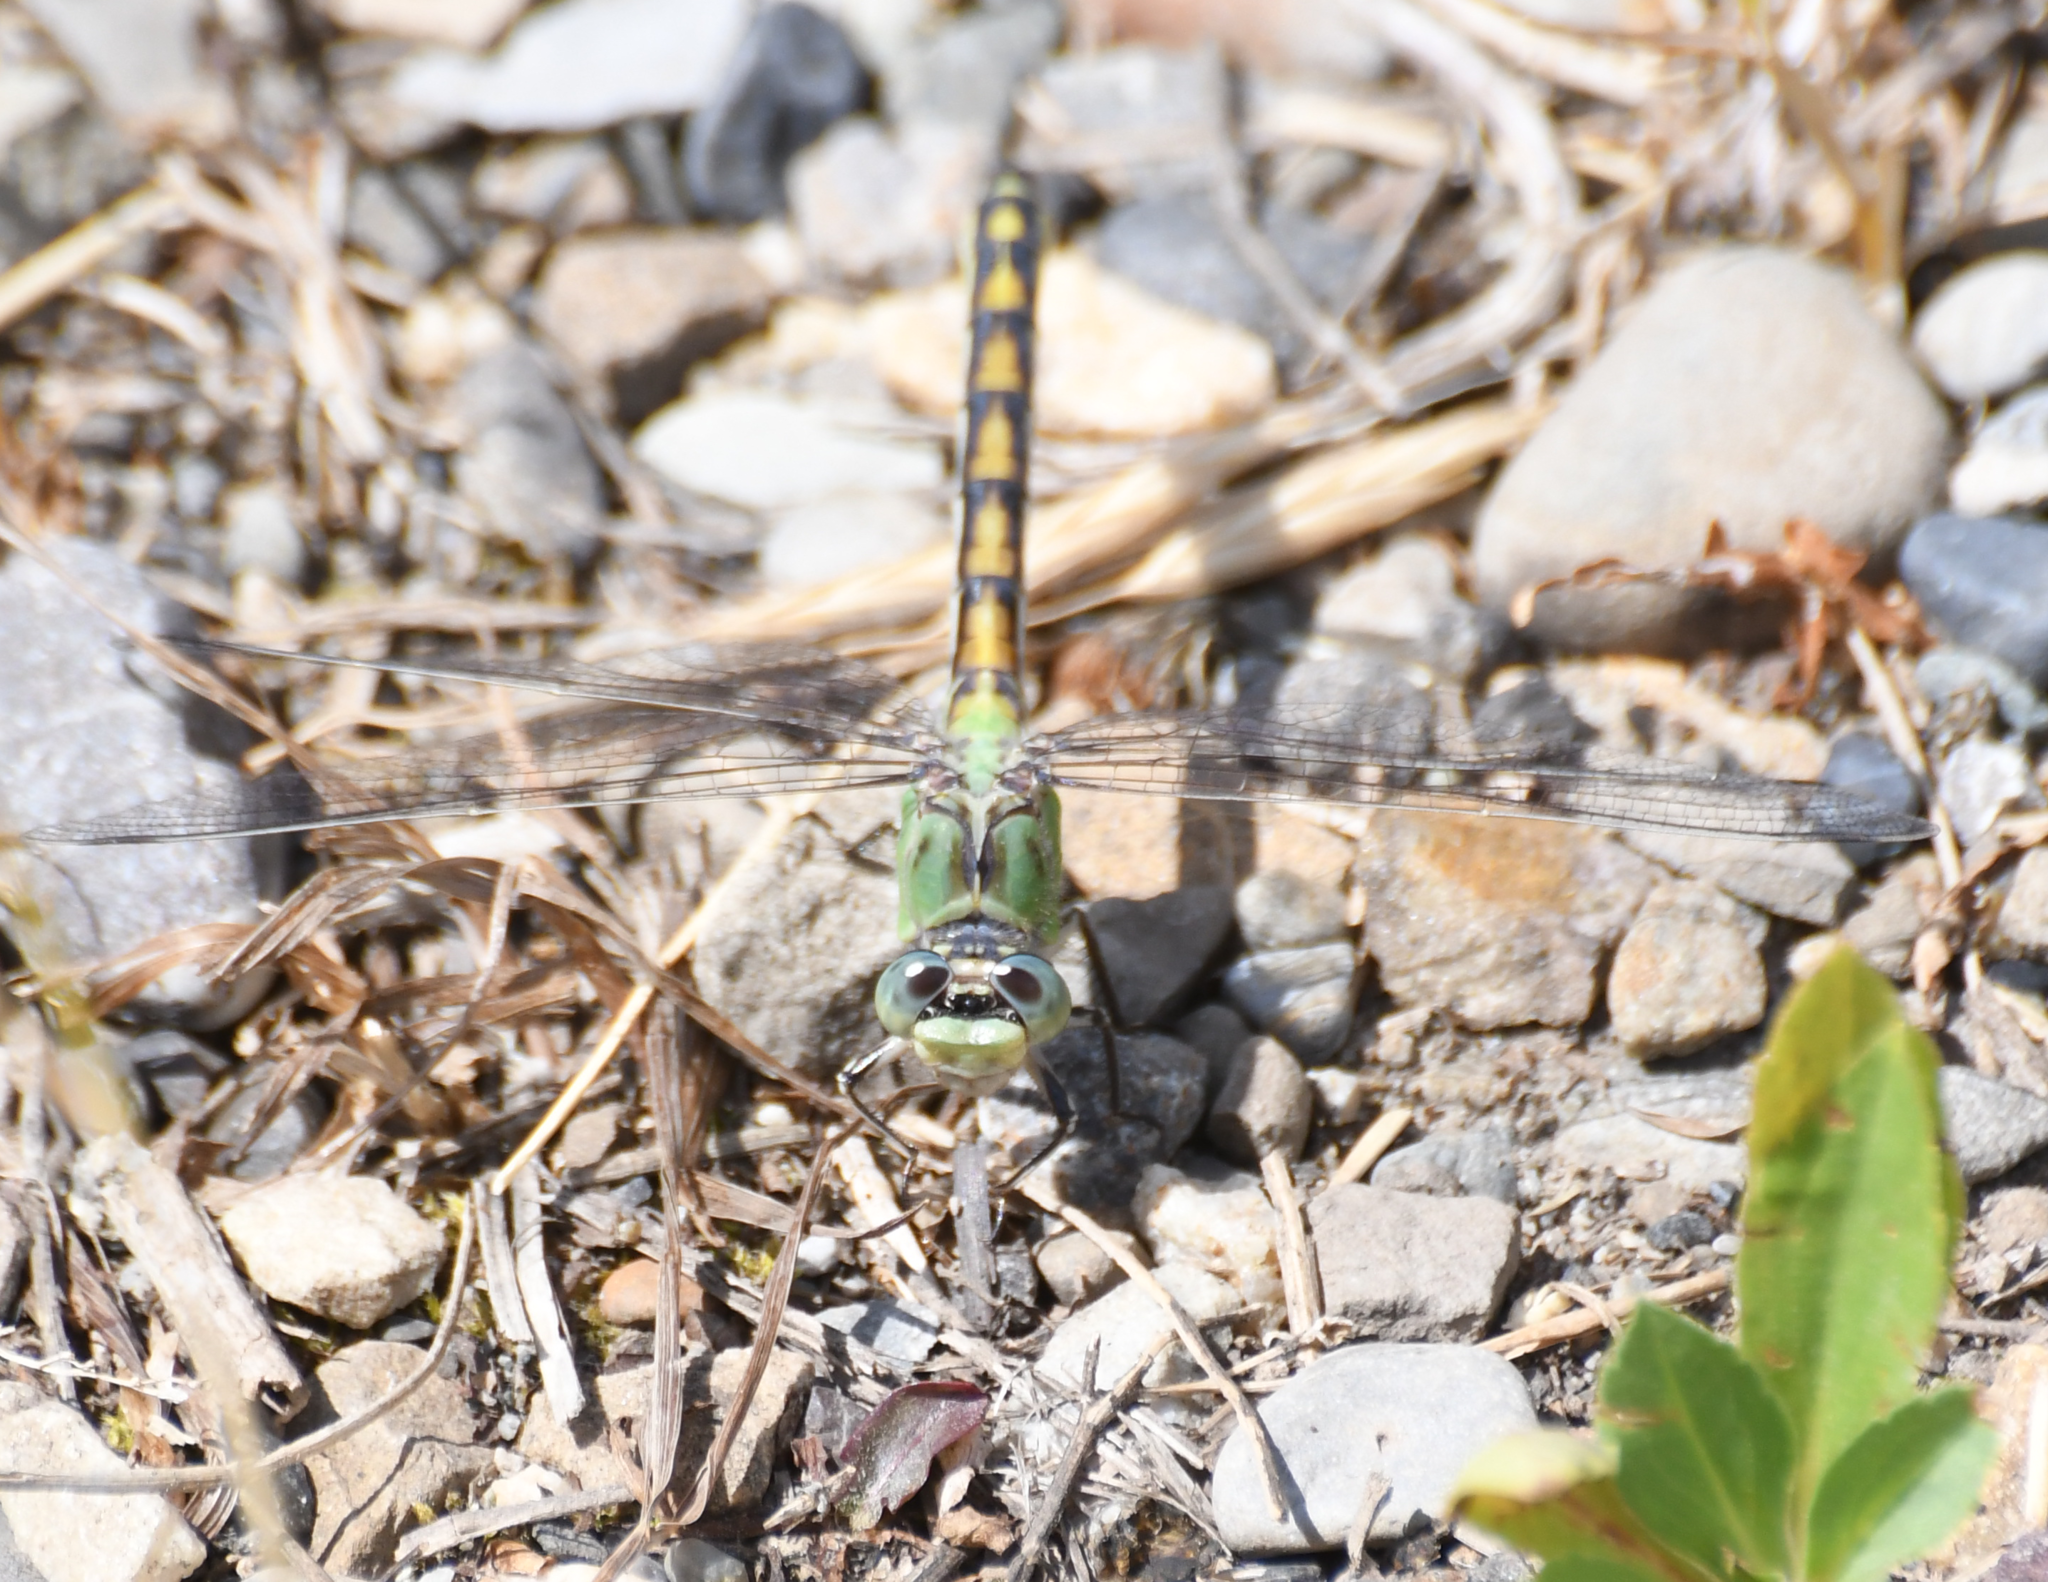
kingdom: Animalia
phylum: Arthropoda
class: Insecta
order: Odonata
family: Gomphidae
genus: Ophiogomphus
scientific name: Ophiogomphus severus
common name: Pale snaketail
